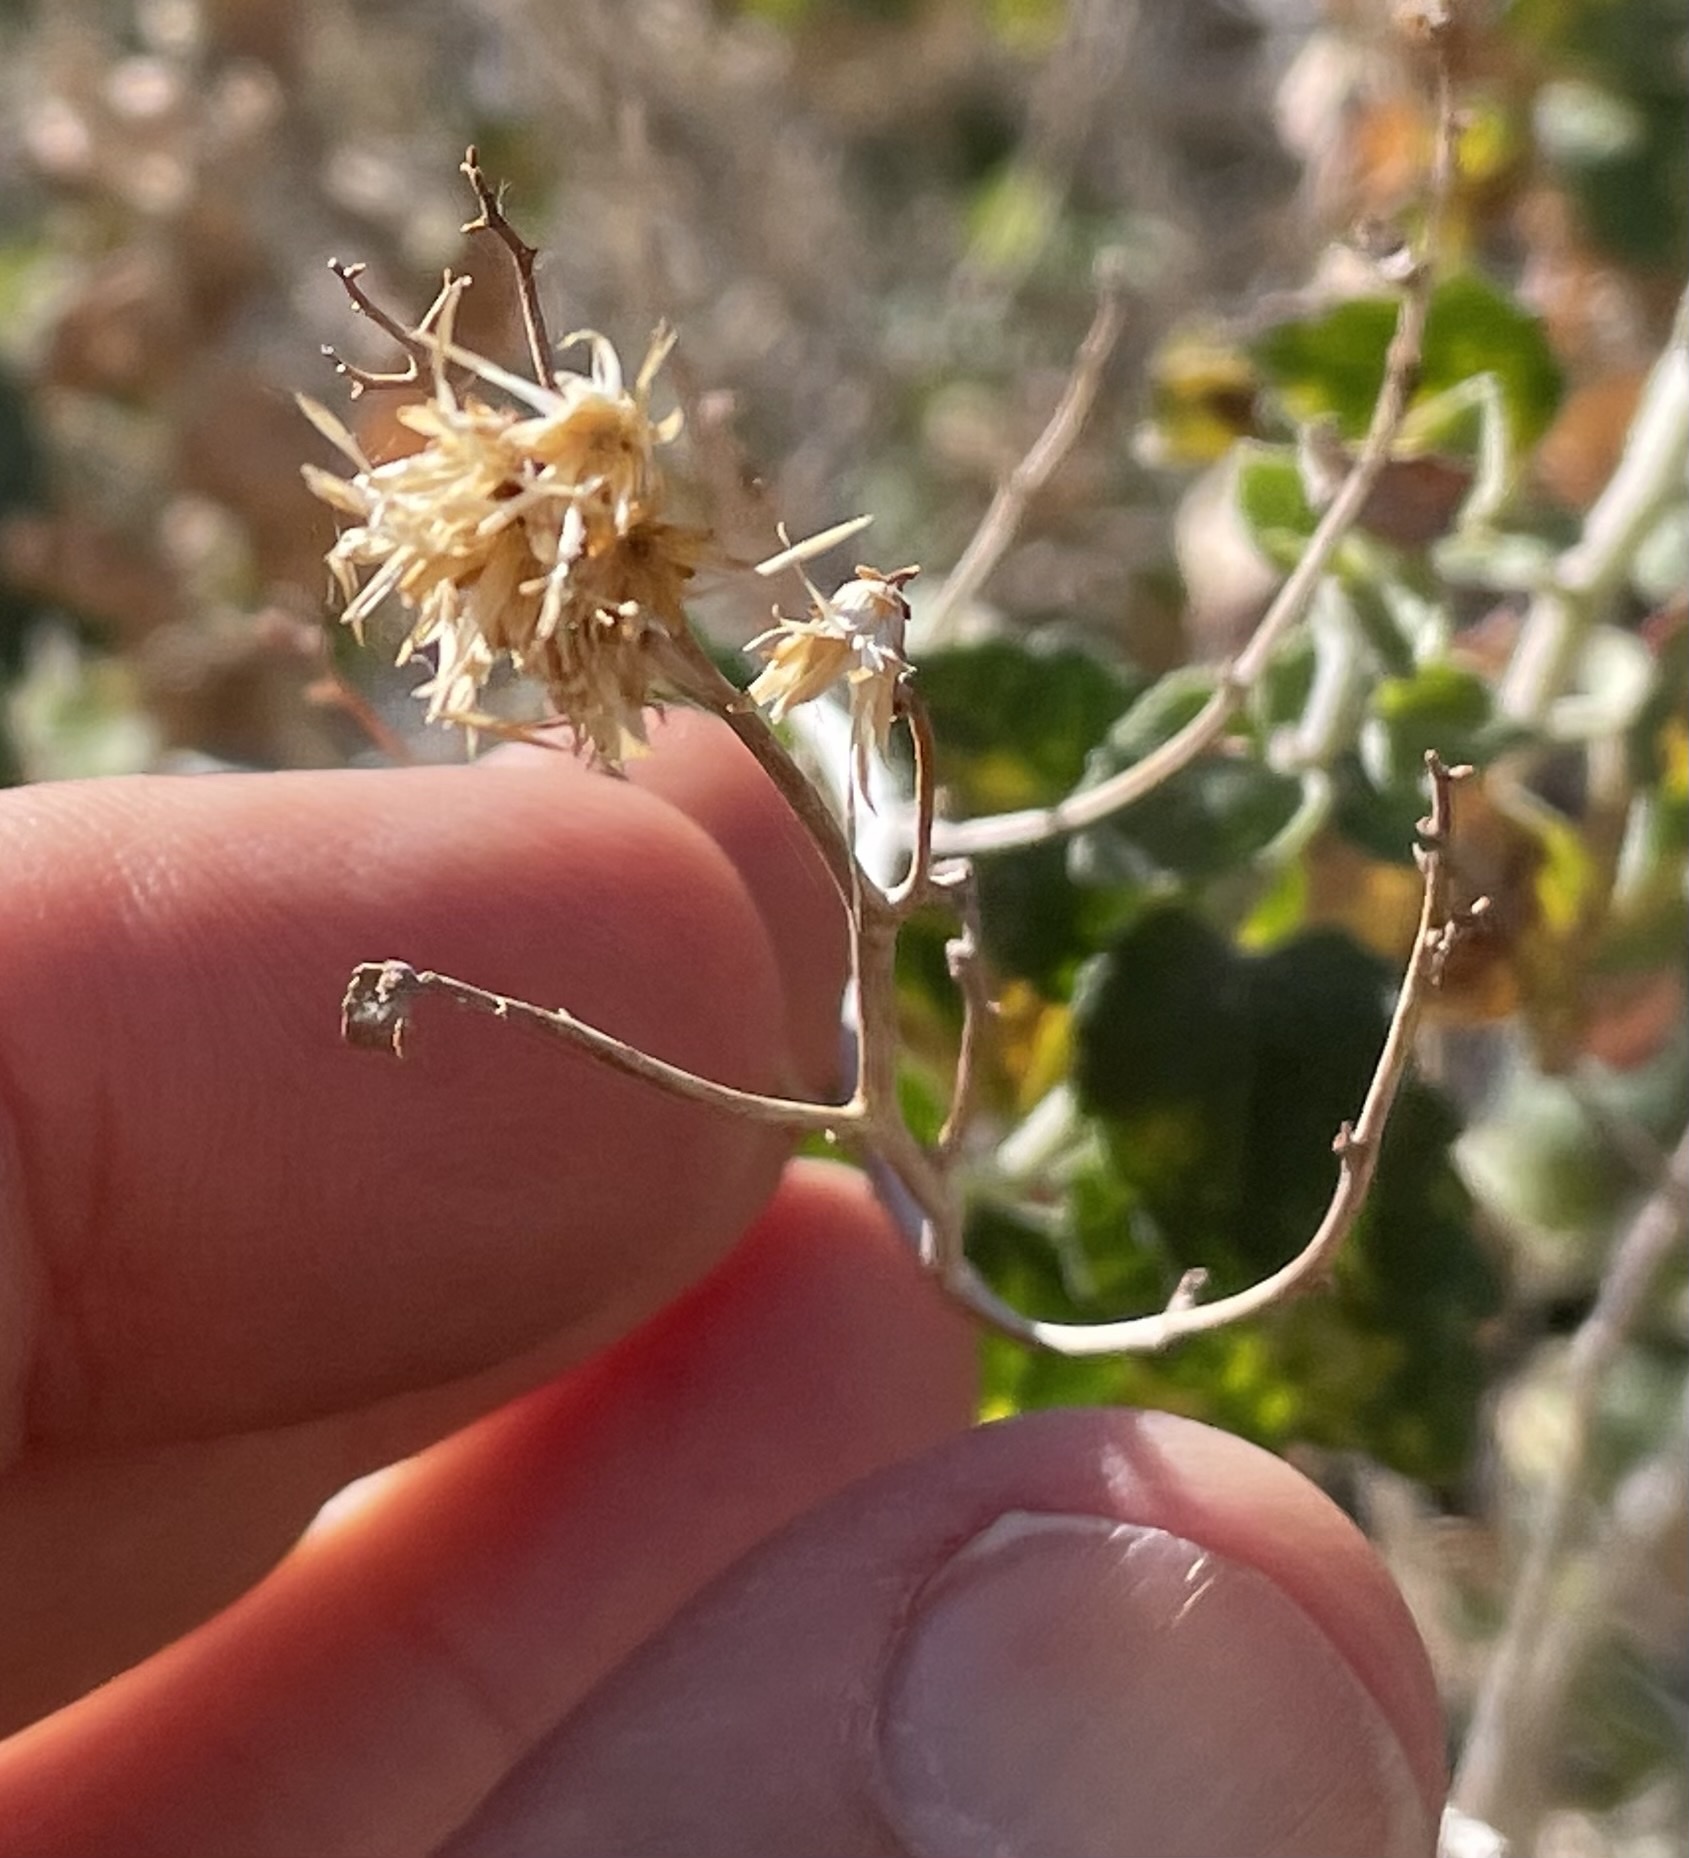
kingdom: Plantae
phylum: Tracheophyta
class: Magnoliopsida
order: Asterales
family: Asteraceae
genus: Brickellia
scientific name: Brickellia californica
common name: California brickellbush
